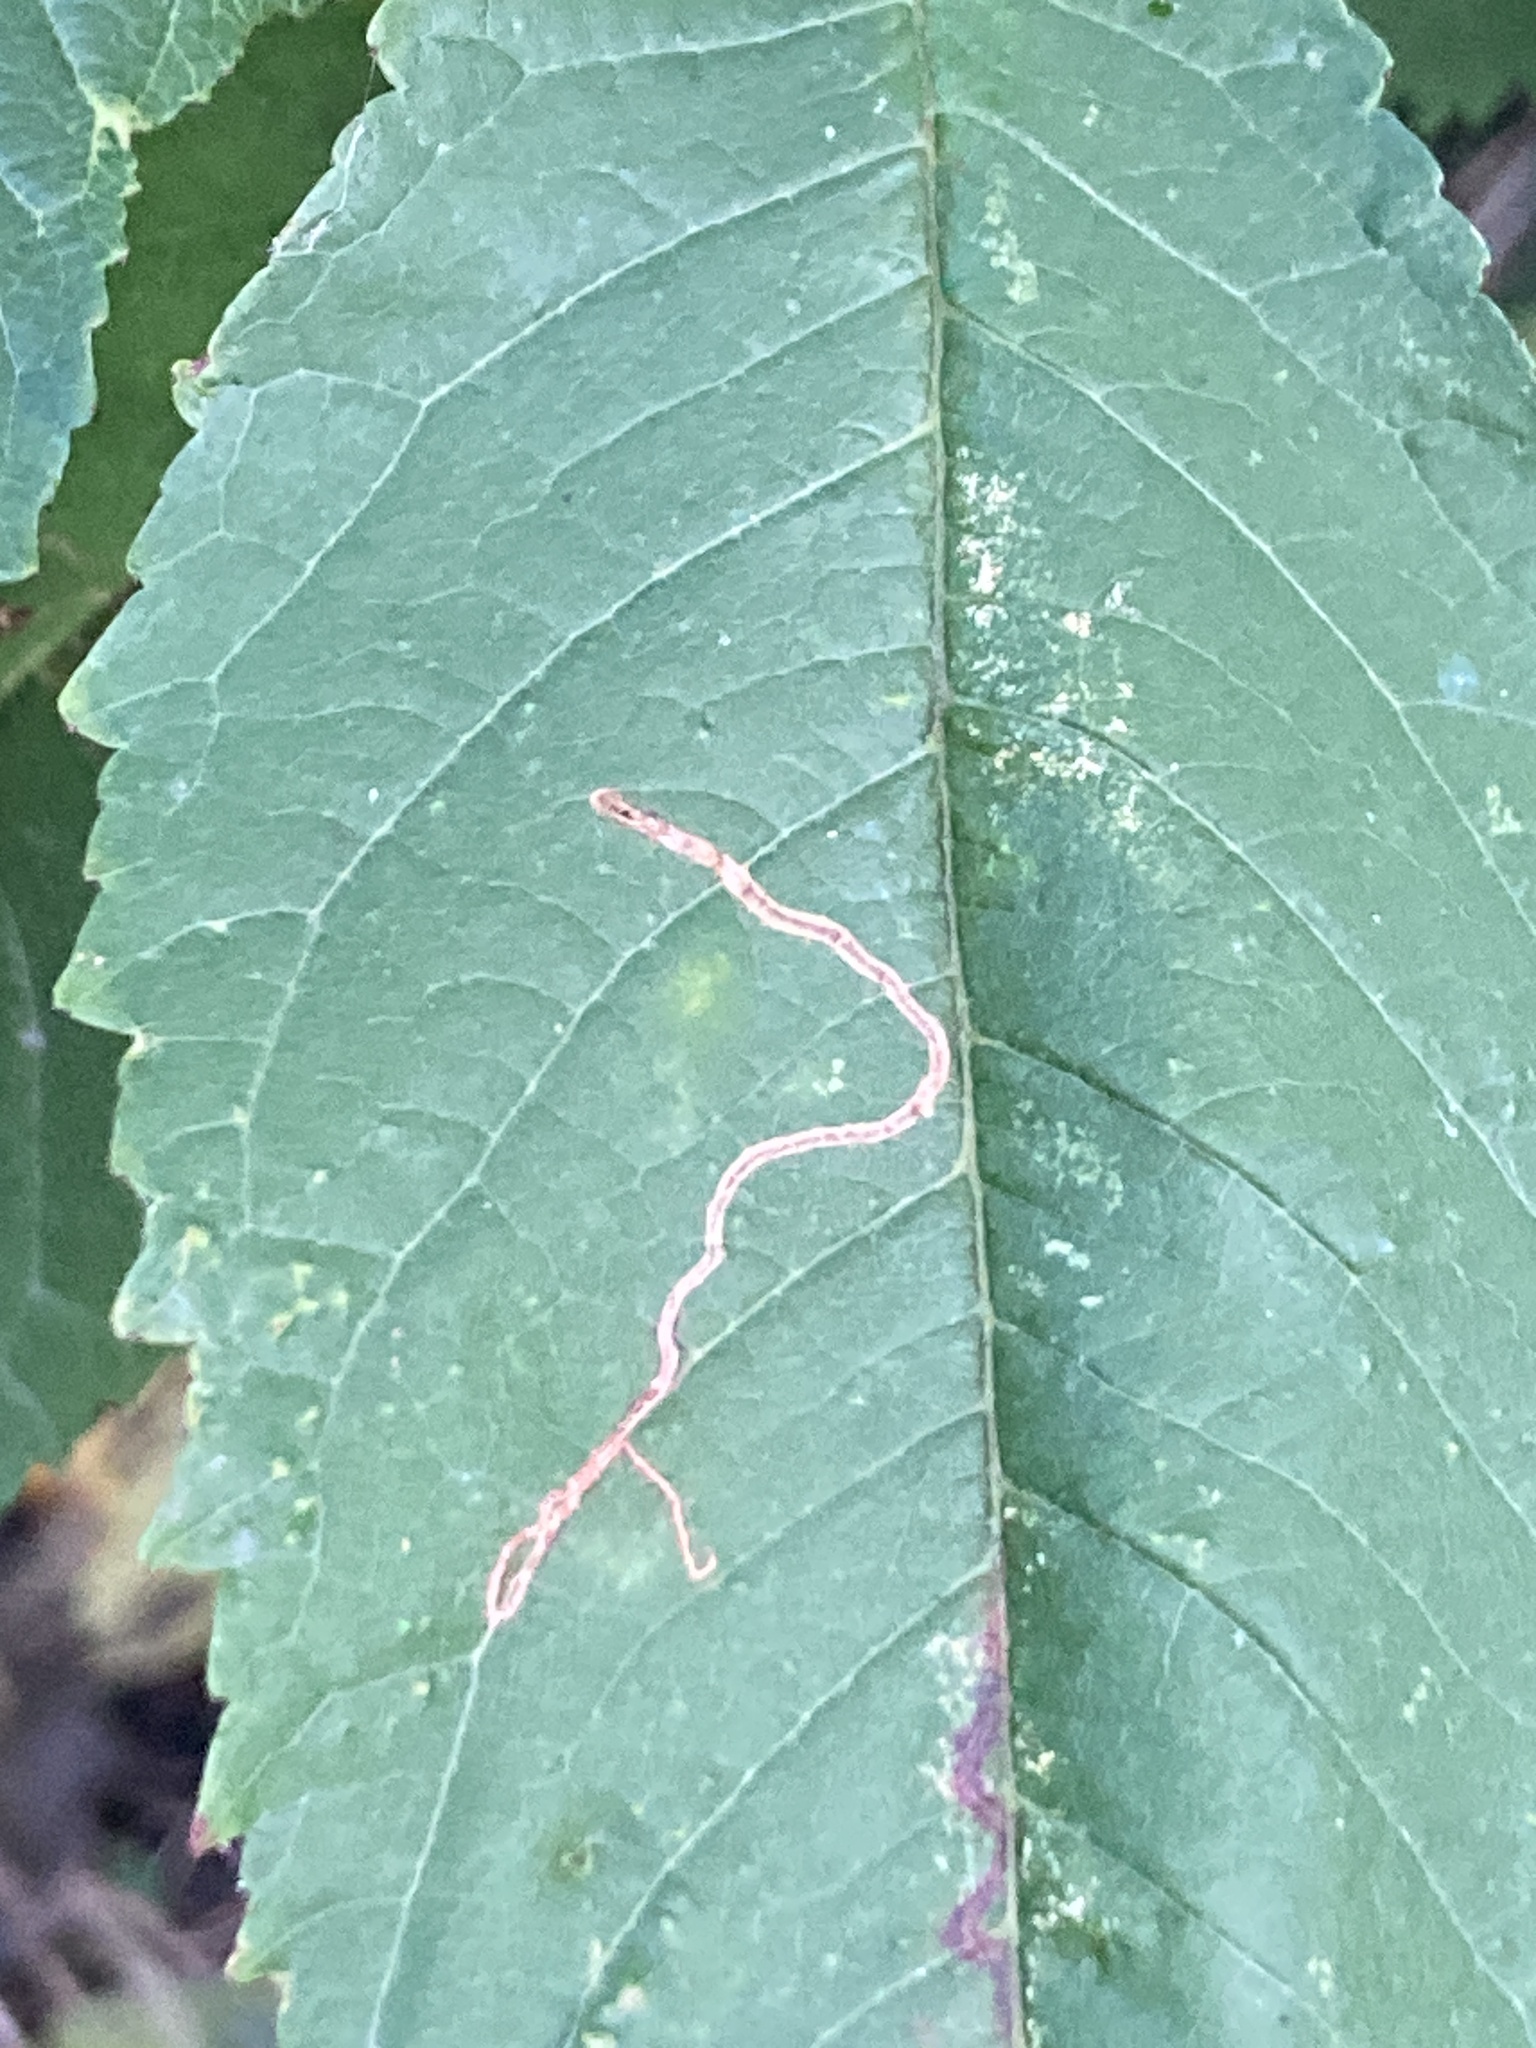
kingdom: Animalia
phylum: Arthropoda
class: Insecta
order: Lepidoptera
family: Lyonetiidae
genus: Lyonetia
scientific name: Lyonetia clerkella
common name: Apple leaf miner
